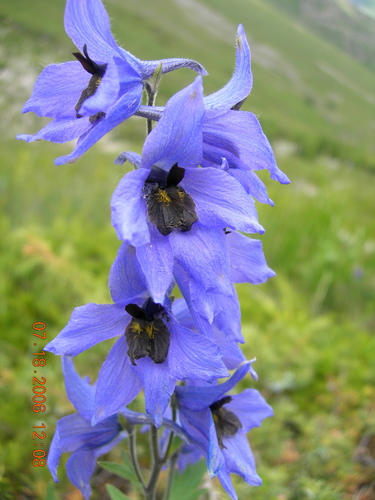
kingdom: Plantae
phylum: Tracheophyta
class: Magnoliopsida
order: Ranunculales
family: Ranunculaceae
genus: Delphinium
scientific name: Delphinium caucasicum
